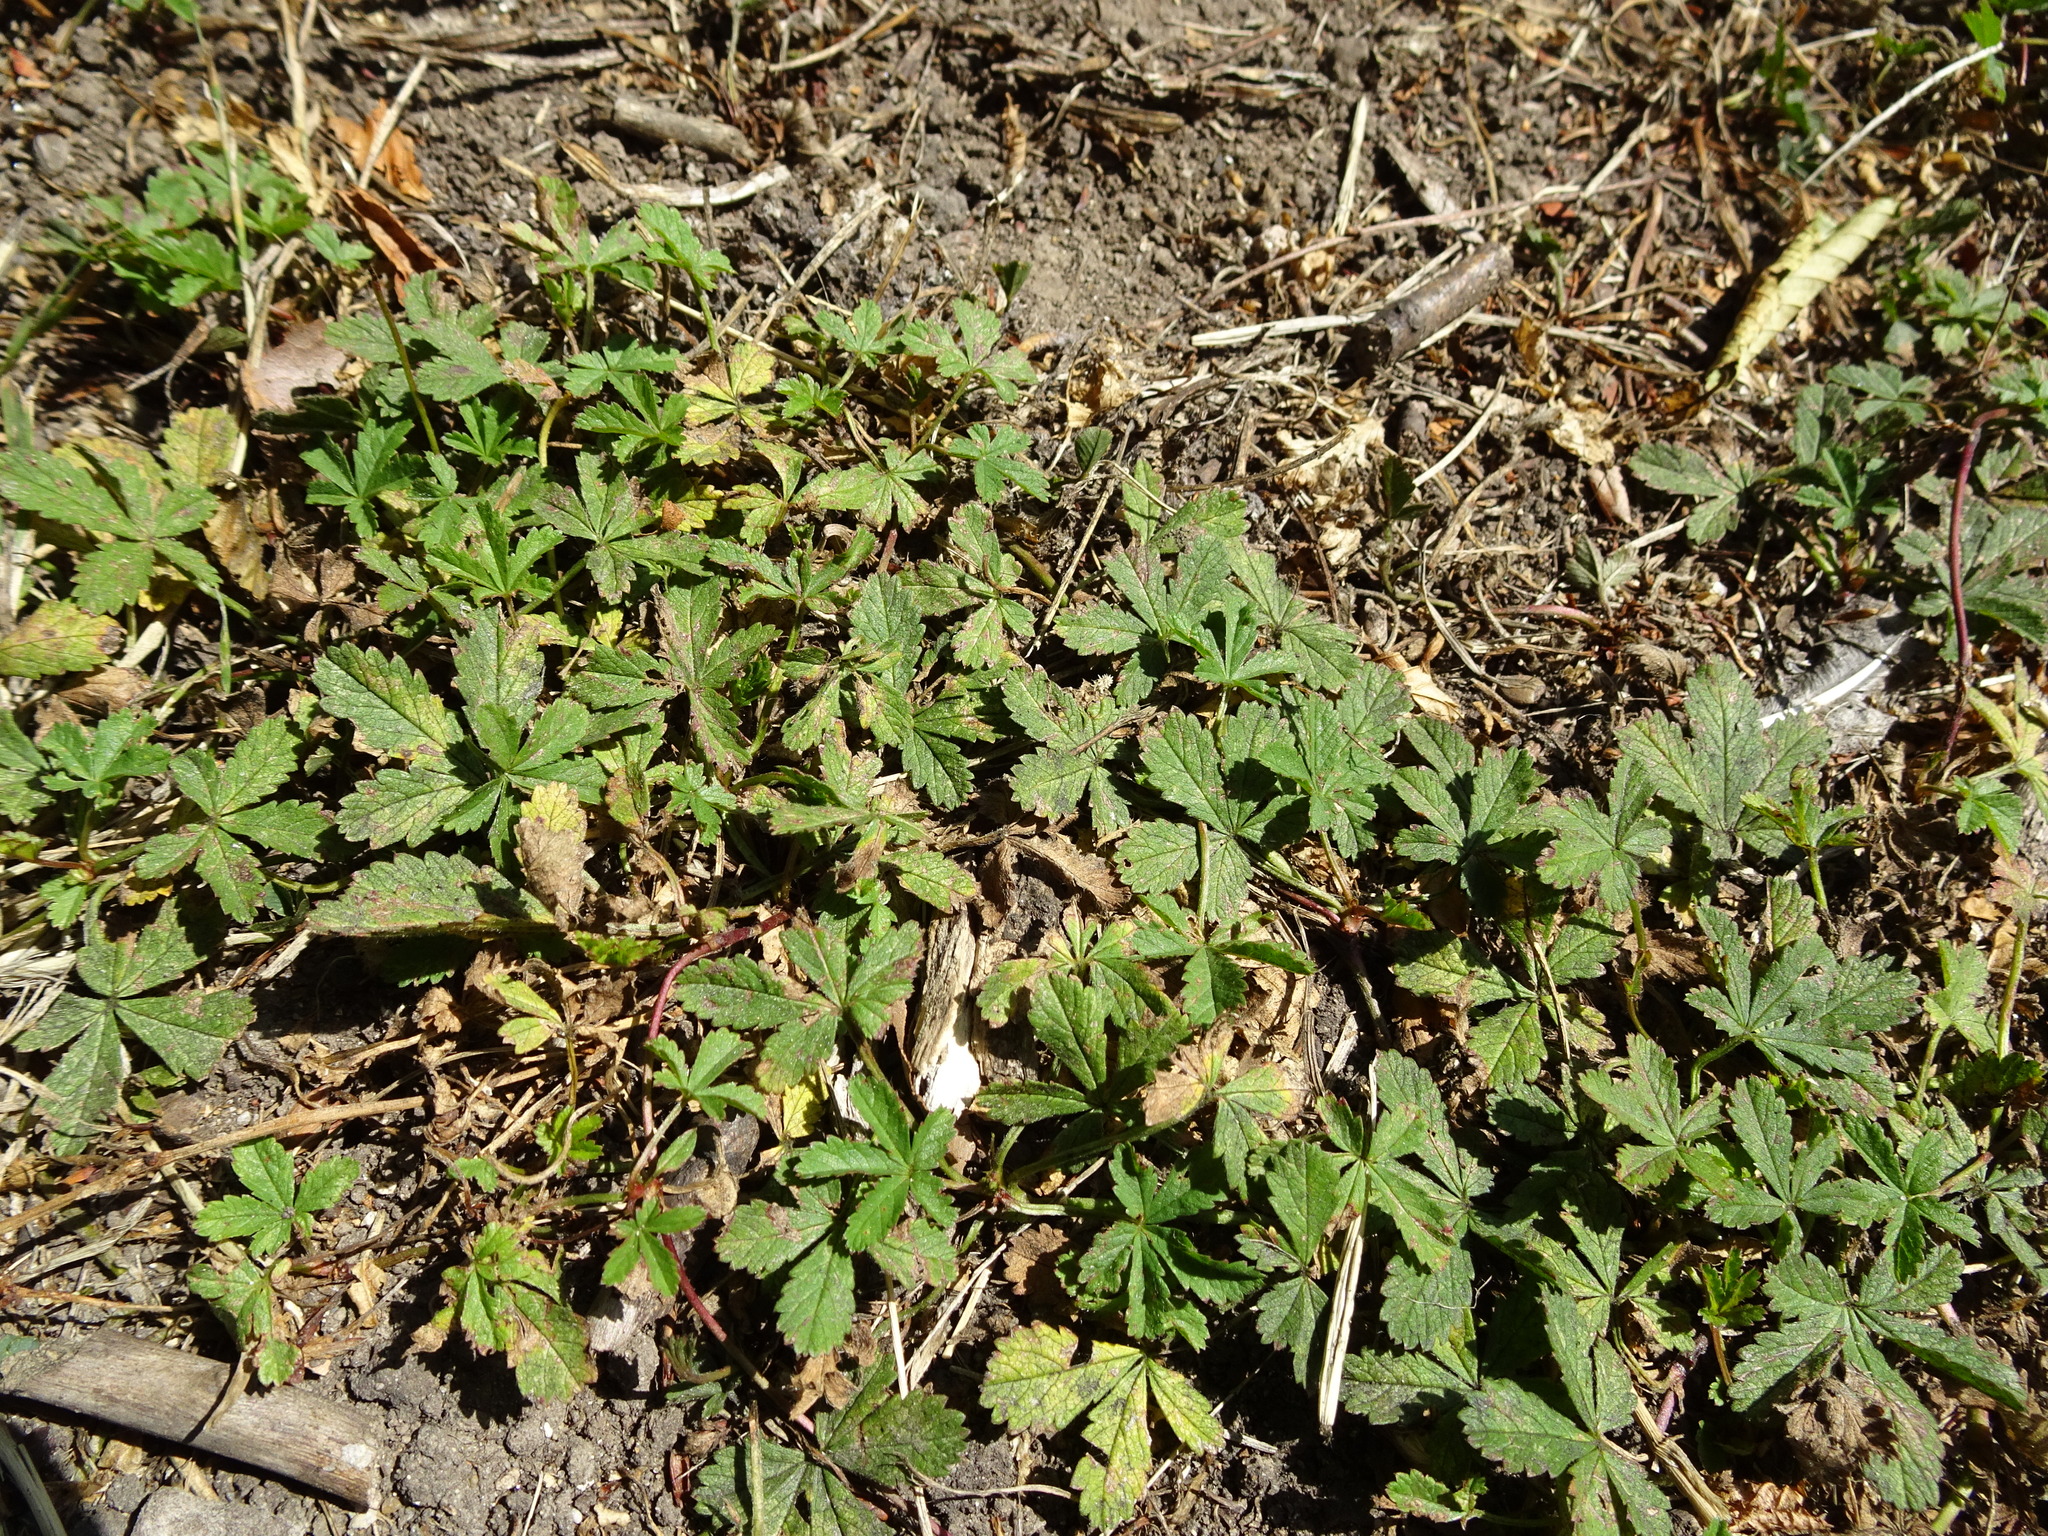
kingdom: Plantae
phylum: Tracheophyta
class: Magnoliopsida
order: Rosales
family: Rosaceae
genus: Potentilla
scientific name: Potentilla reptans
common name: Creeping cinquefoil
